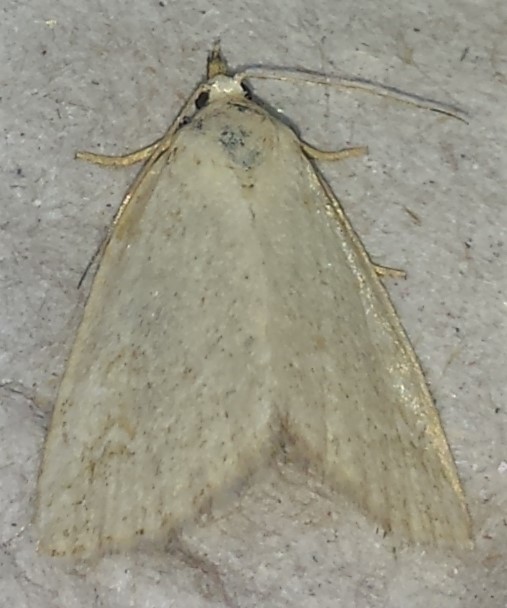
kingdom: Animalia
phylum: Arthropoda
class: Insecta
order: Lepidoptera
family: Noctuidae
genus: Protodeltote
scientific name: Protodeltote albidula
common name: Pale glyph
